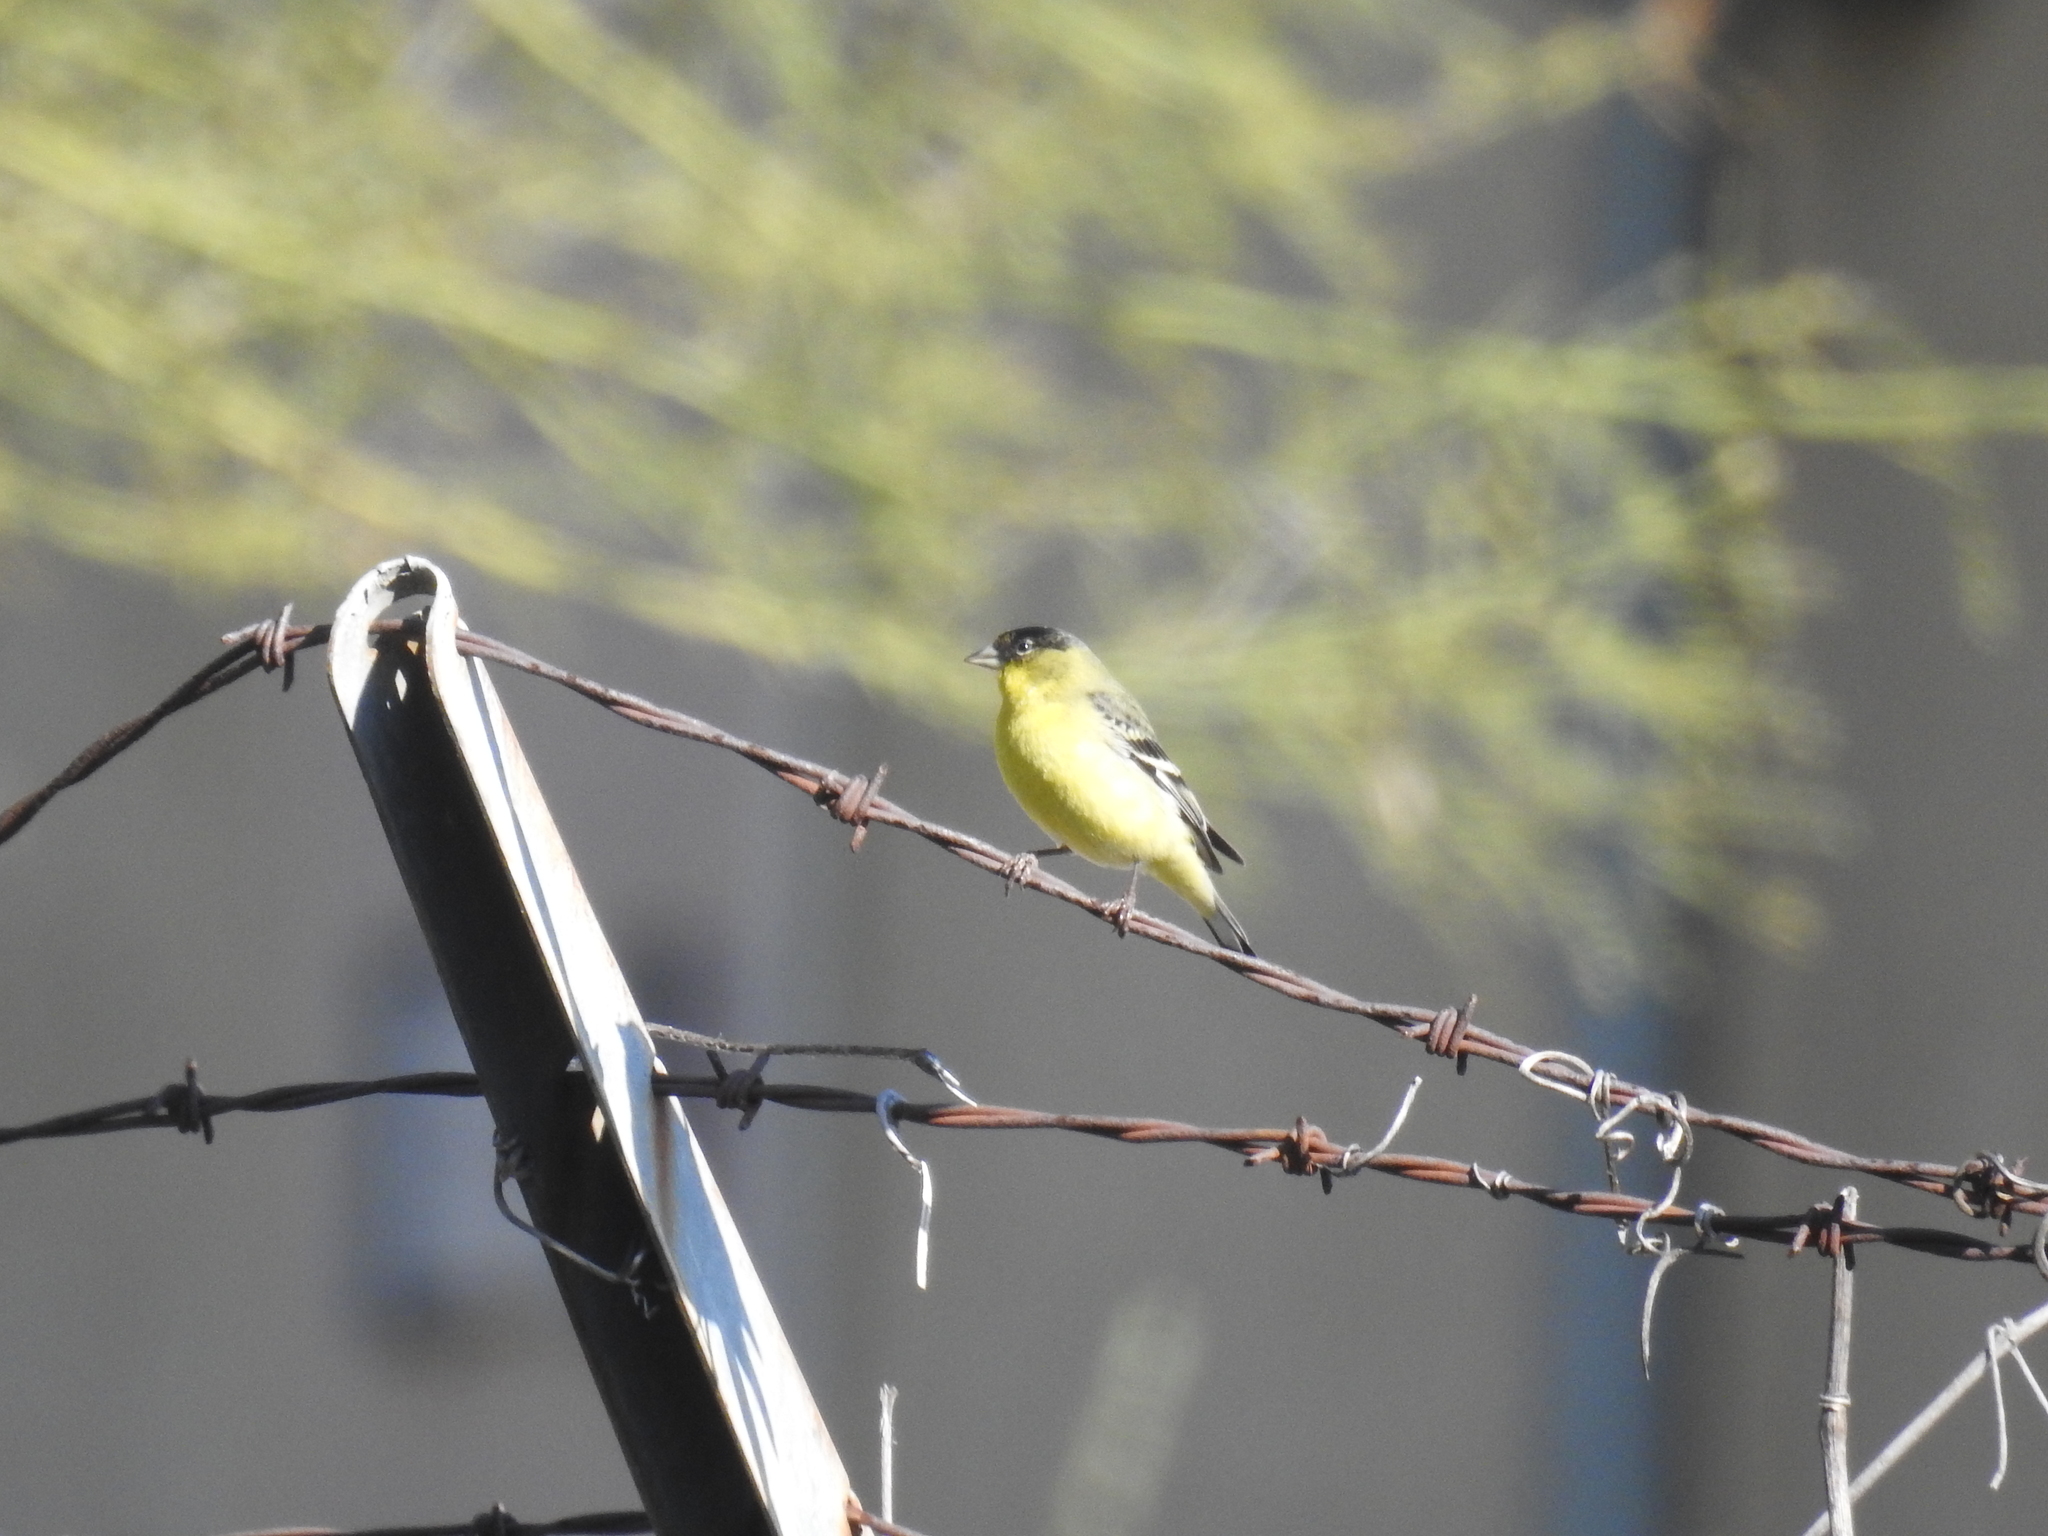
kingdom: Animalia
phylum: Chordata
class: Aves
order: Passeriformes
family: Fringillidae
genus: Spinus
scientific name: Spinus psaltria
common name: Lesser goldfinch
